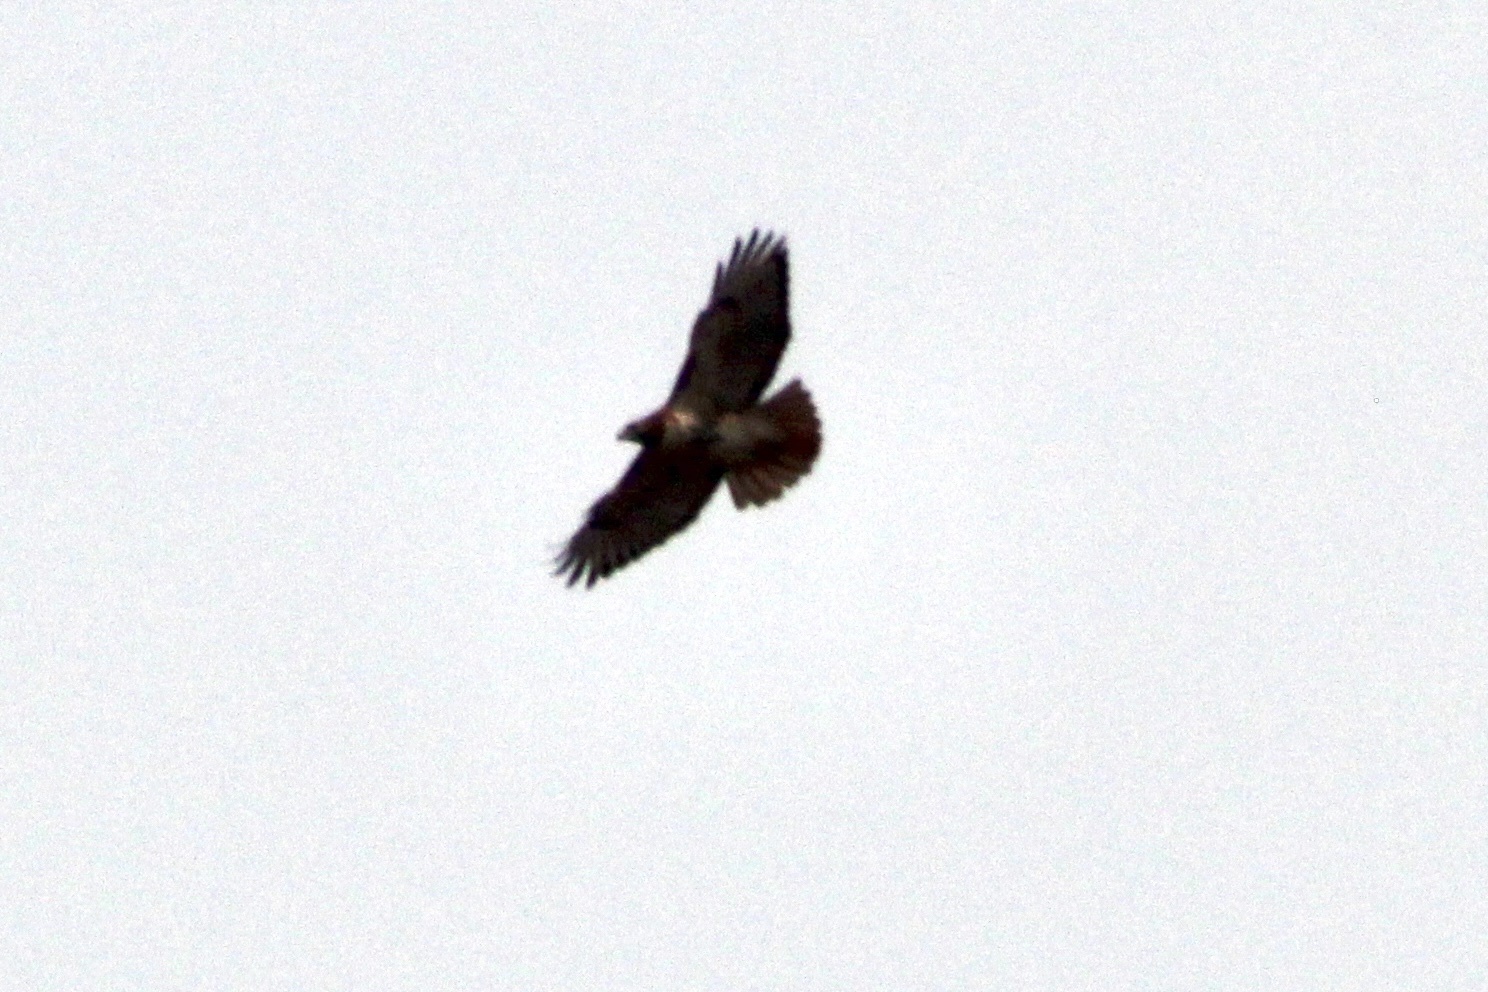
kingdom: Animalia
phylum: Chordata
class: Aves
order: Accipitriformes
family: Accipitridae
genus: Buteo
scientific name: Buteo jamaicensis
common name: Red-tailed hawk
